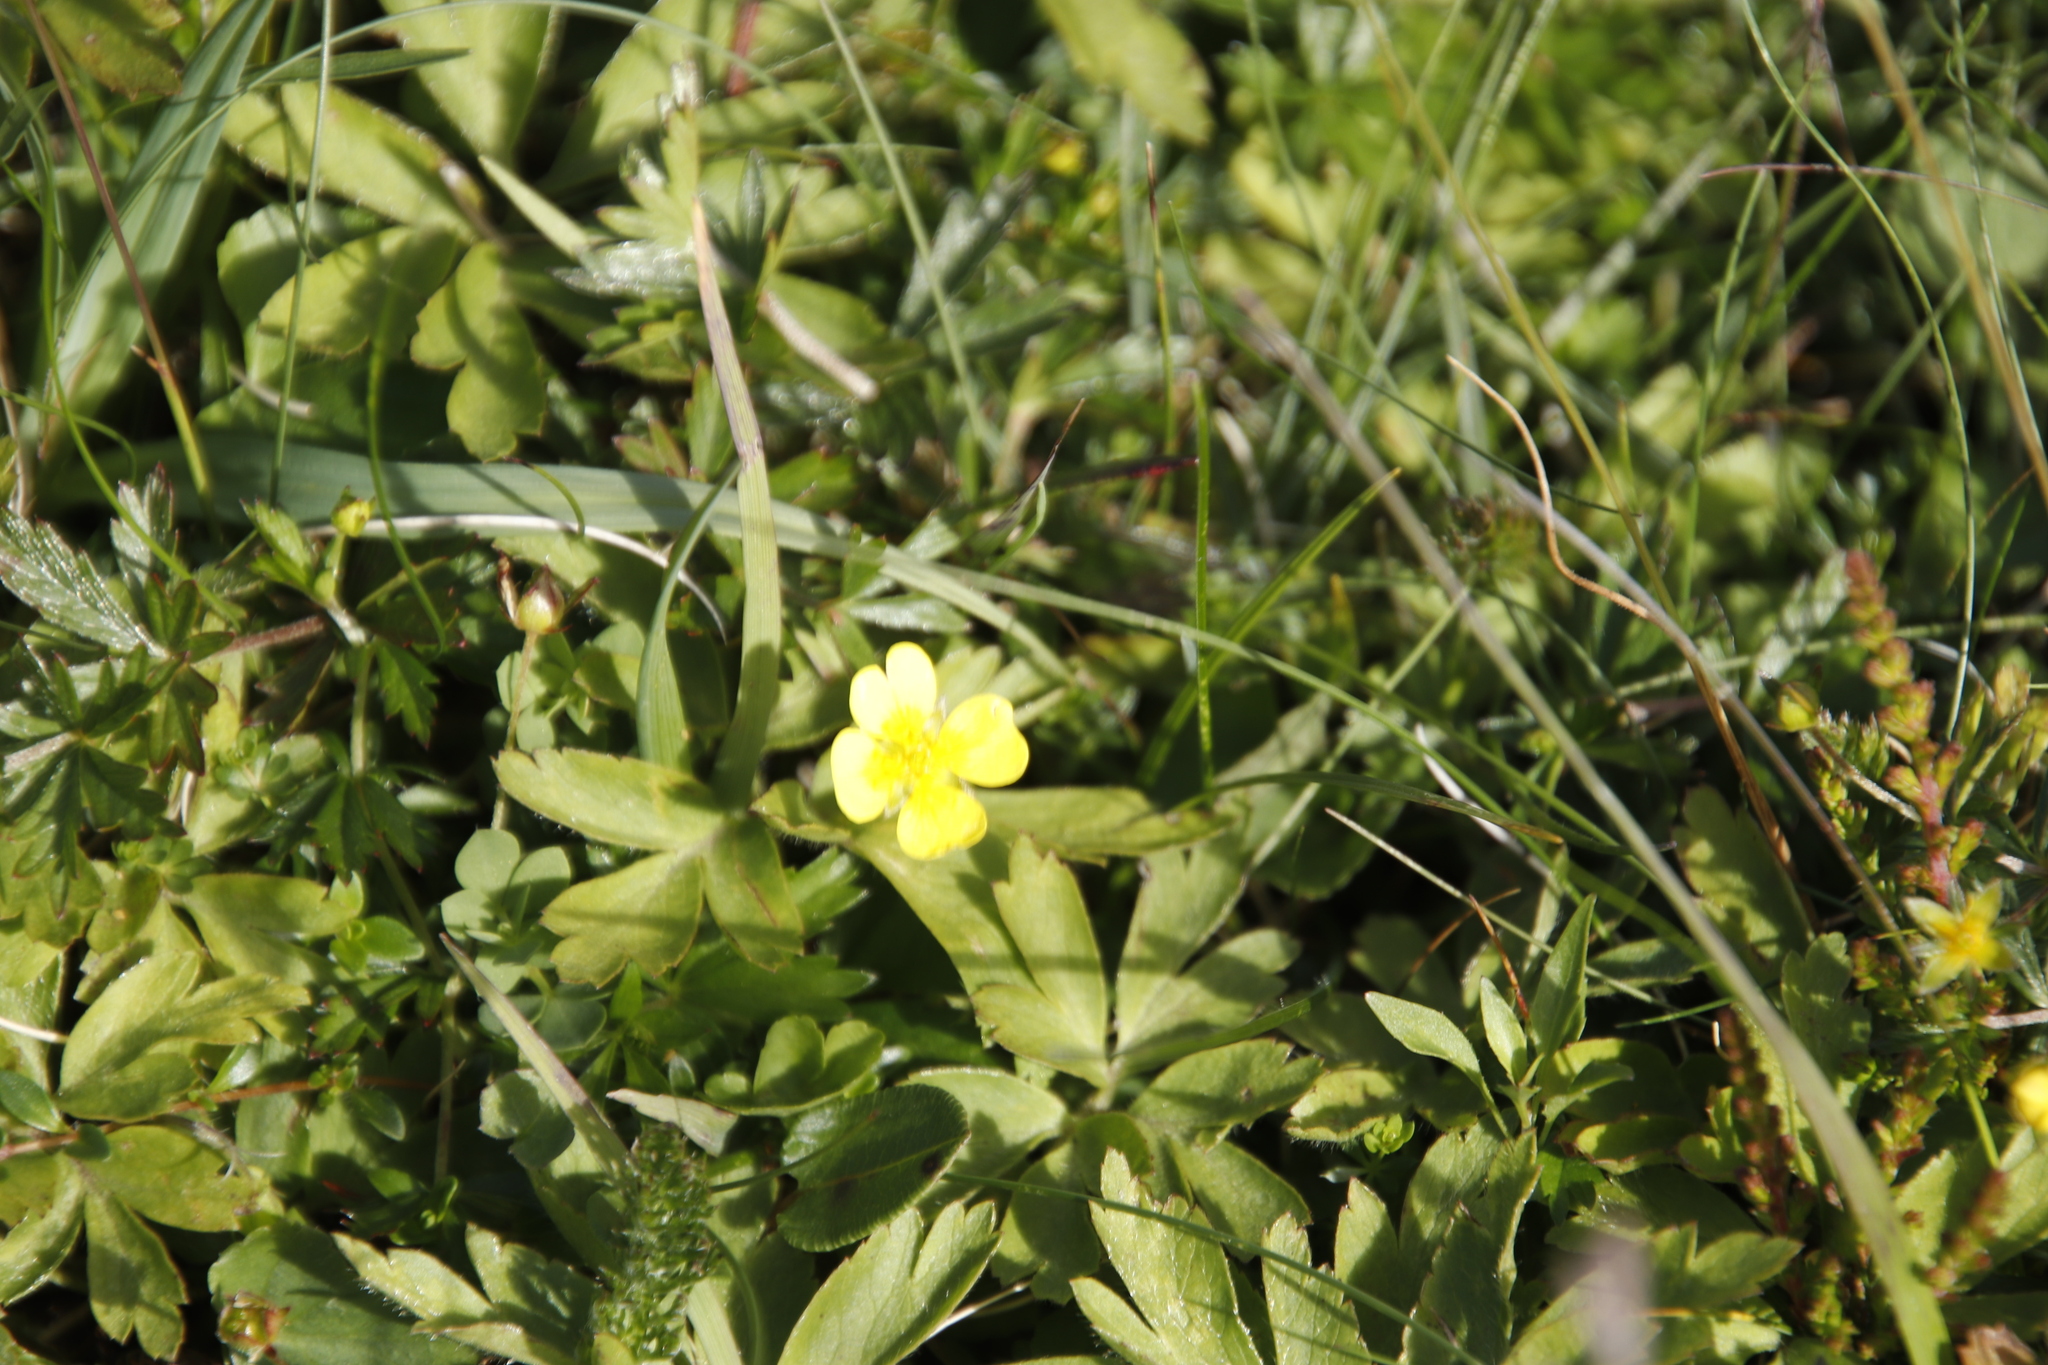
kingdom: Plantae
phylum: Tracheophyta
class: Magnoliopsida
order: Ranunculales
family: Ranunculaceae
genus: Anemone
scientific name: Anemone nemorosa
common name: Wood anemone
